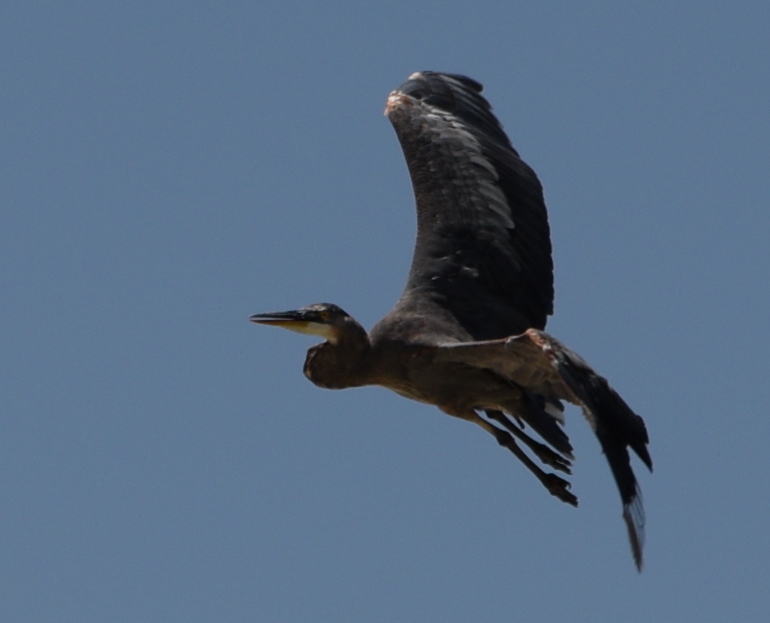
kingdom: Animalia
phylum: Chordata
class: Aves
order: Pelecaniformes
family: Ardeidae
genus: Ardea
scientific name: Ardea herodias
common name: Great blue heron
